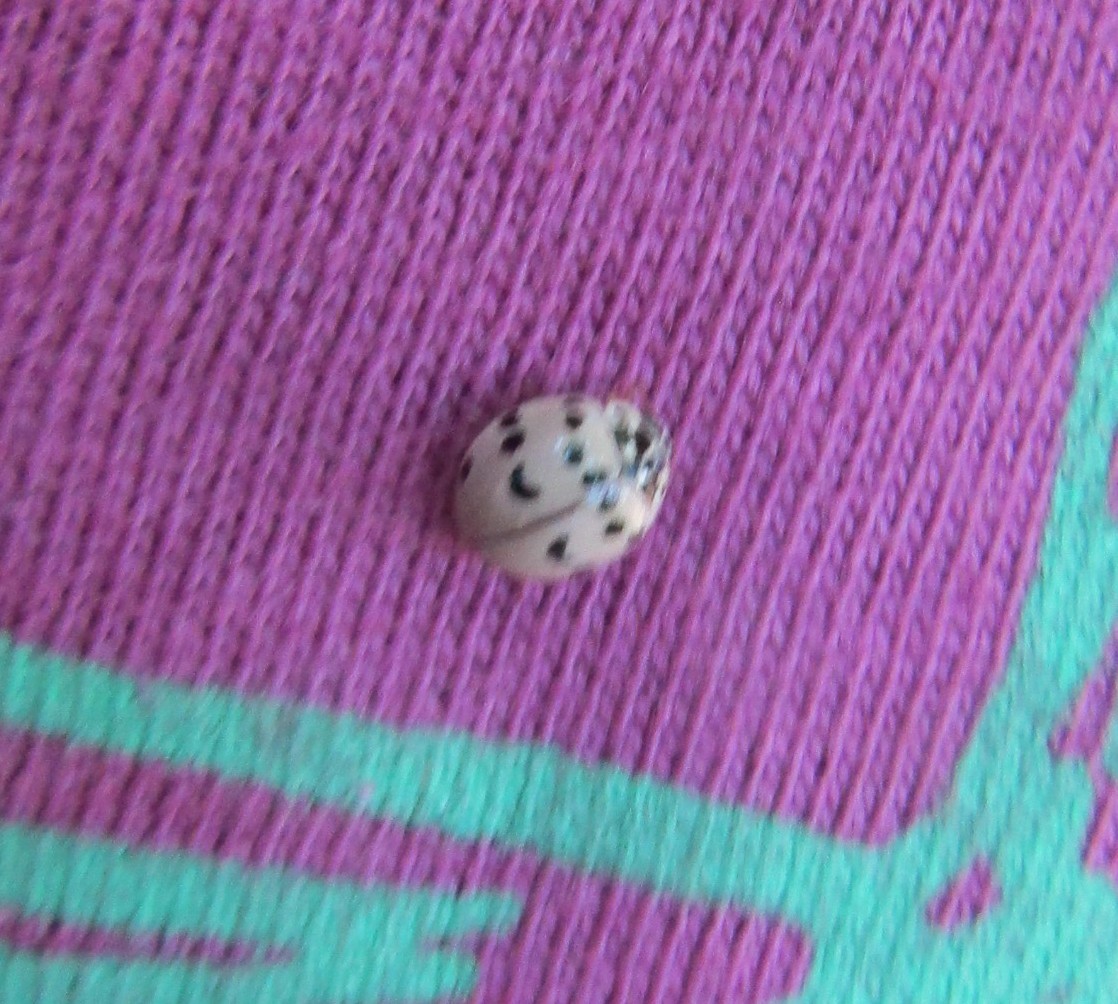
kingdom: Animalia
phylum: Arthropoda
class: Insecta
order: Coleoptera
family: Coccinellidae
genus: Olla
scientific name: Olla v-nigrum
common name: Ashy gray lady beetle
